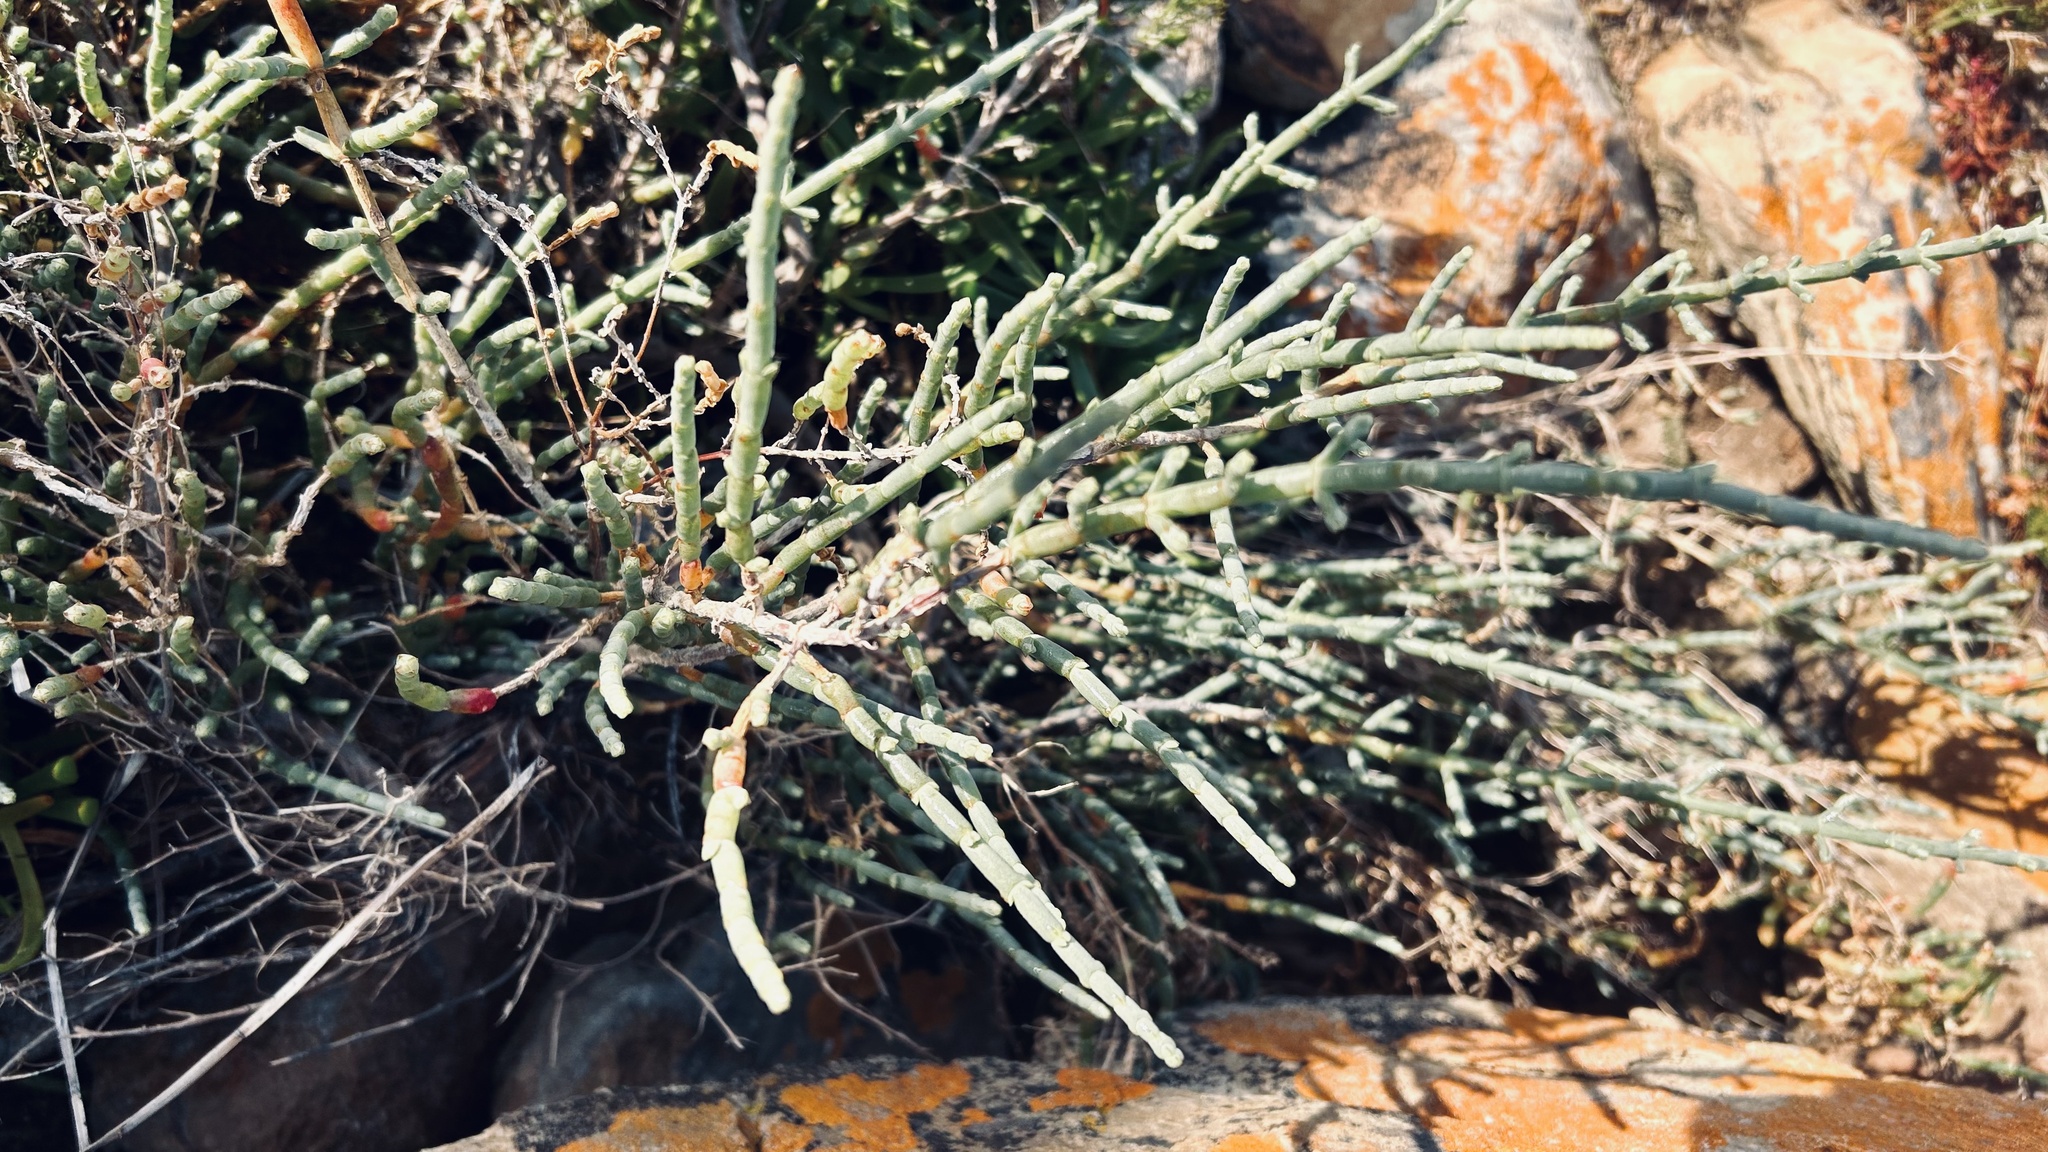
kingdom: Plantae
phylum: Tracheophyta
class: Magnoliopsida
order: Caryophyllales
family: Amaranthaceae
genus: Salicornia
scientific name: Salicornia littorea
